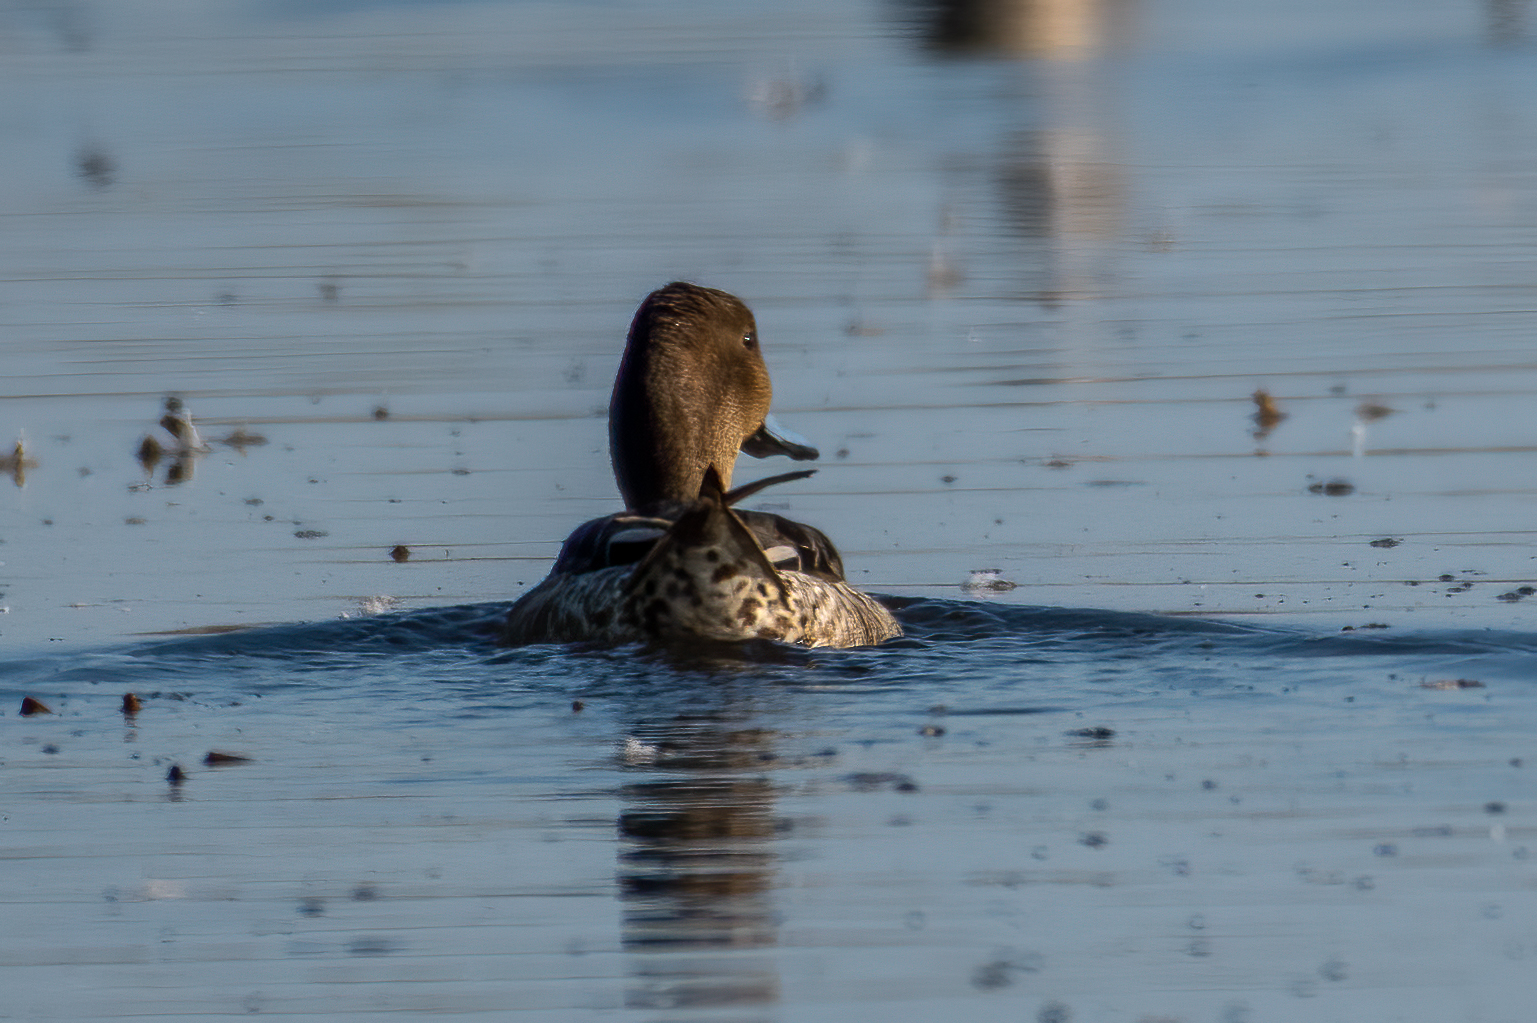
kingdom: Animalia
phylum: Chordata
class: Aves
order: Anseriformes
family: Anatidae
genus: Anas
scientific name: Anas acuta
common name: Northern pintail
